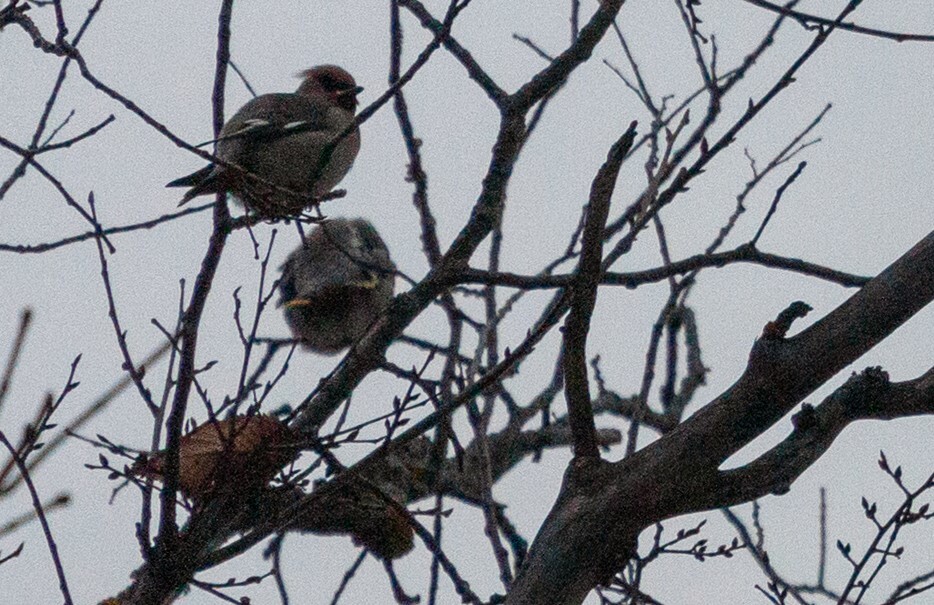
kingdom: Animalia
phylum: Chordata
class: Aves
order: Passeriformes
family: Bombycillidae
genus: Bombycilla
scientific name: Bombycilla garrulus
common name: Bohemian waxwing
